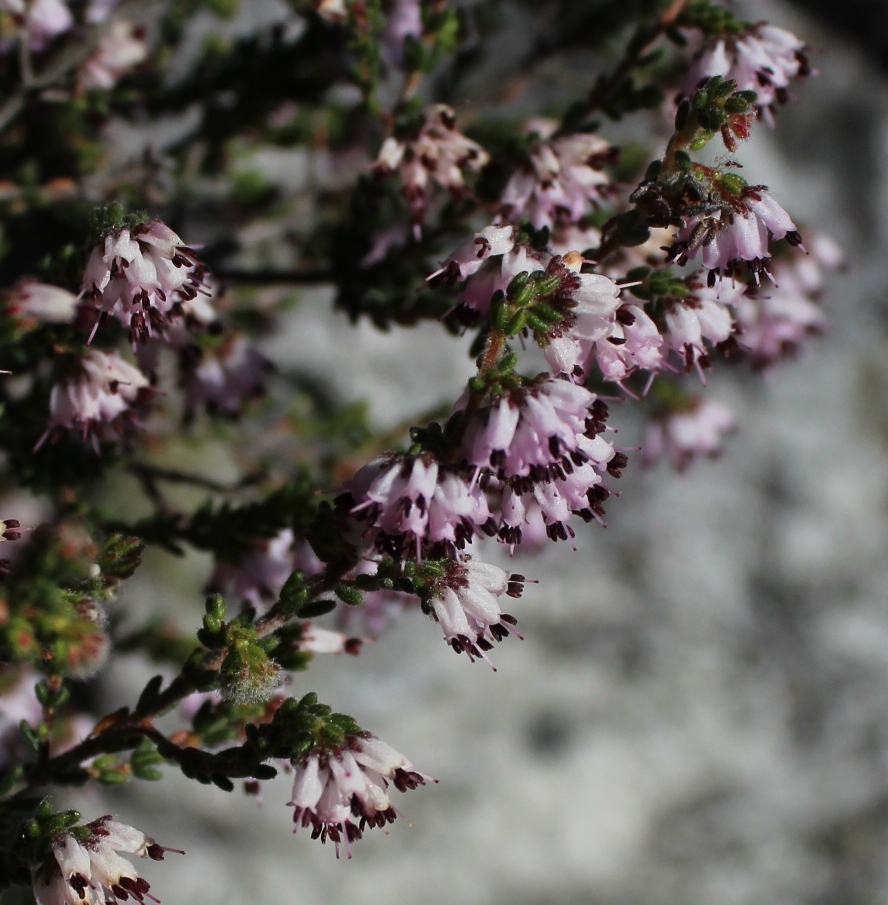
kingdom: Plantae
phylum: Tracheophyta
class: Magnoliopsida
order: Ericales
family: Ericaceae
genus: Erica
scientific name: Erica ericoides
